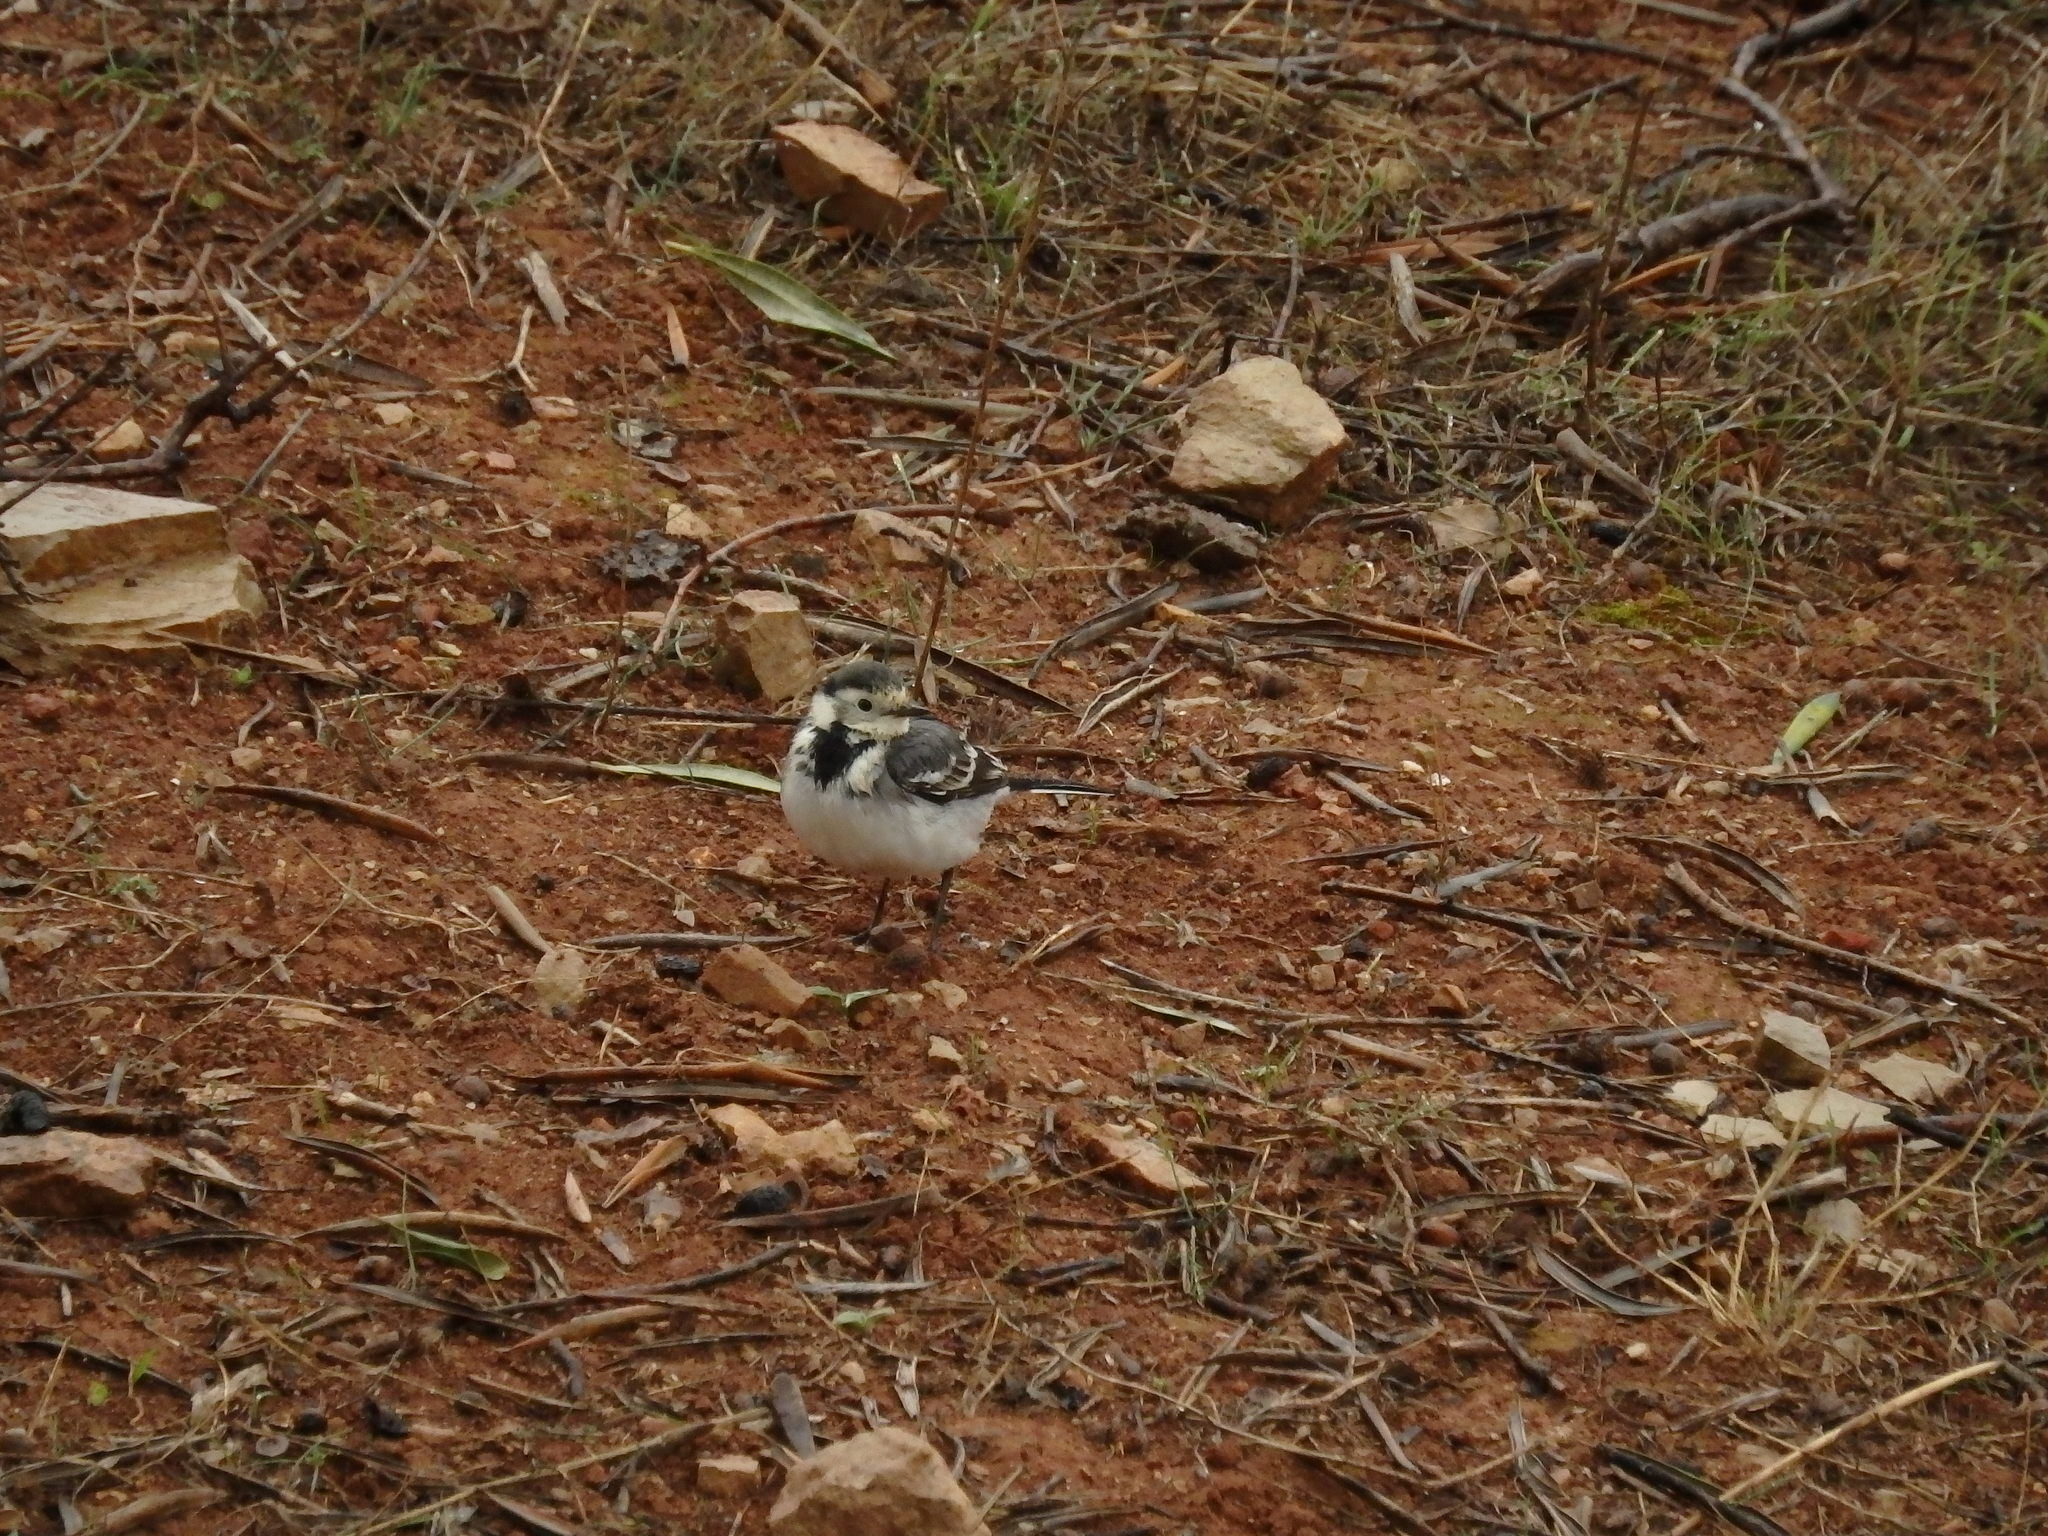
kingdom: Animalia
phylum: Chordata
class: Aves
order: Passeriformes
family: Motacillidae
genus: Motacilla
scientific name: Motacilla alba
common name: White wagtail
